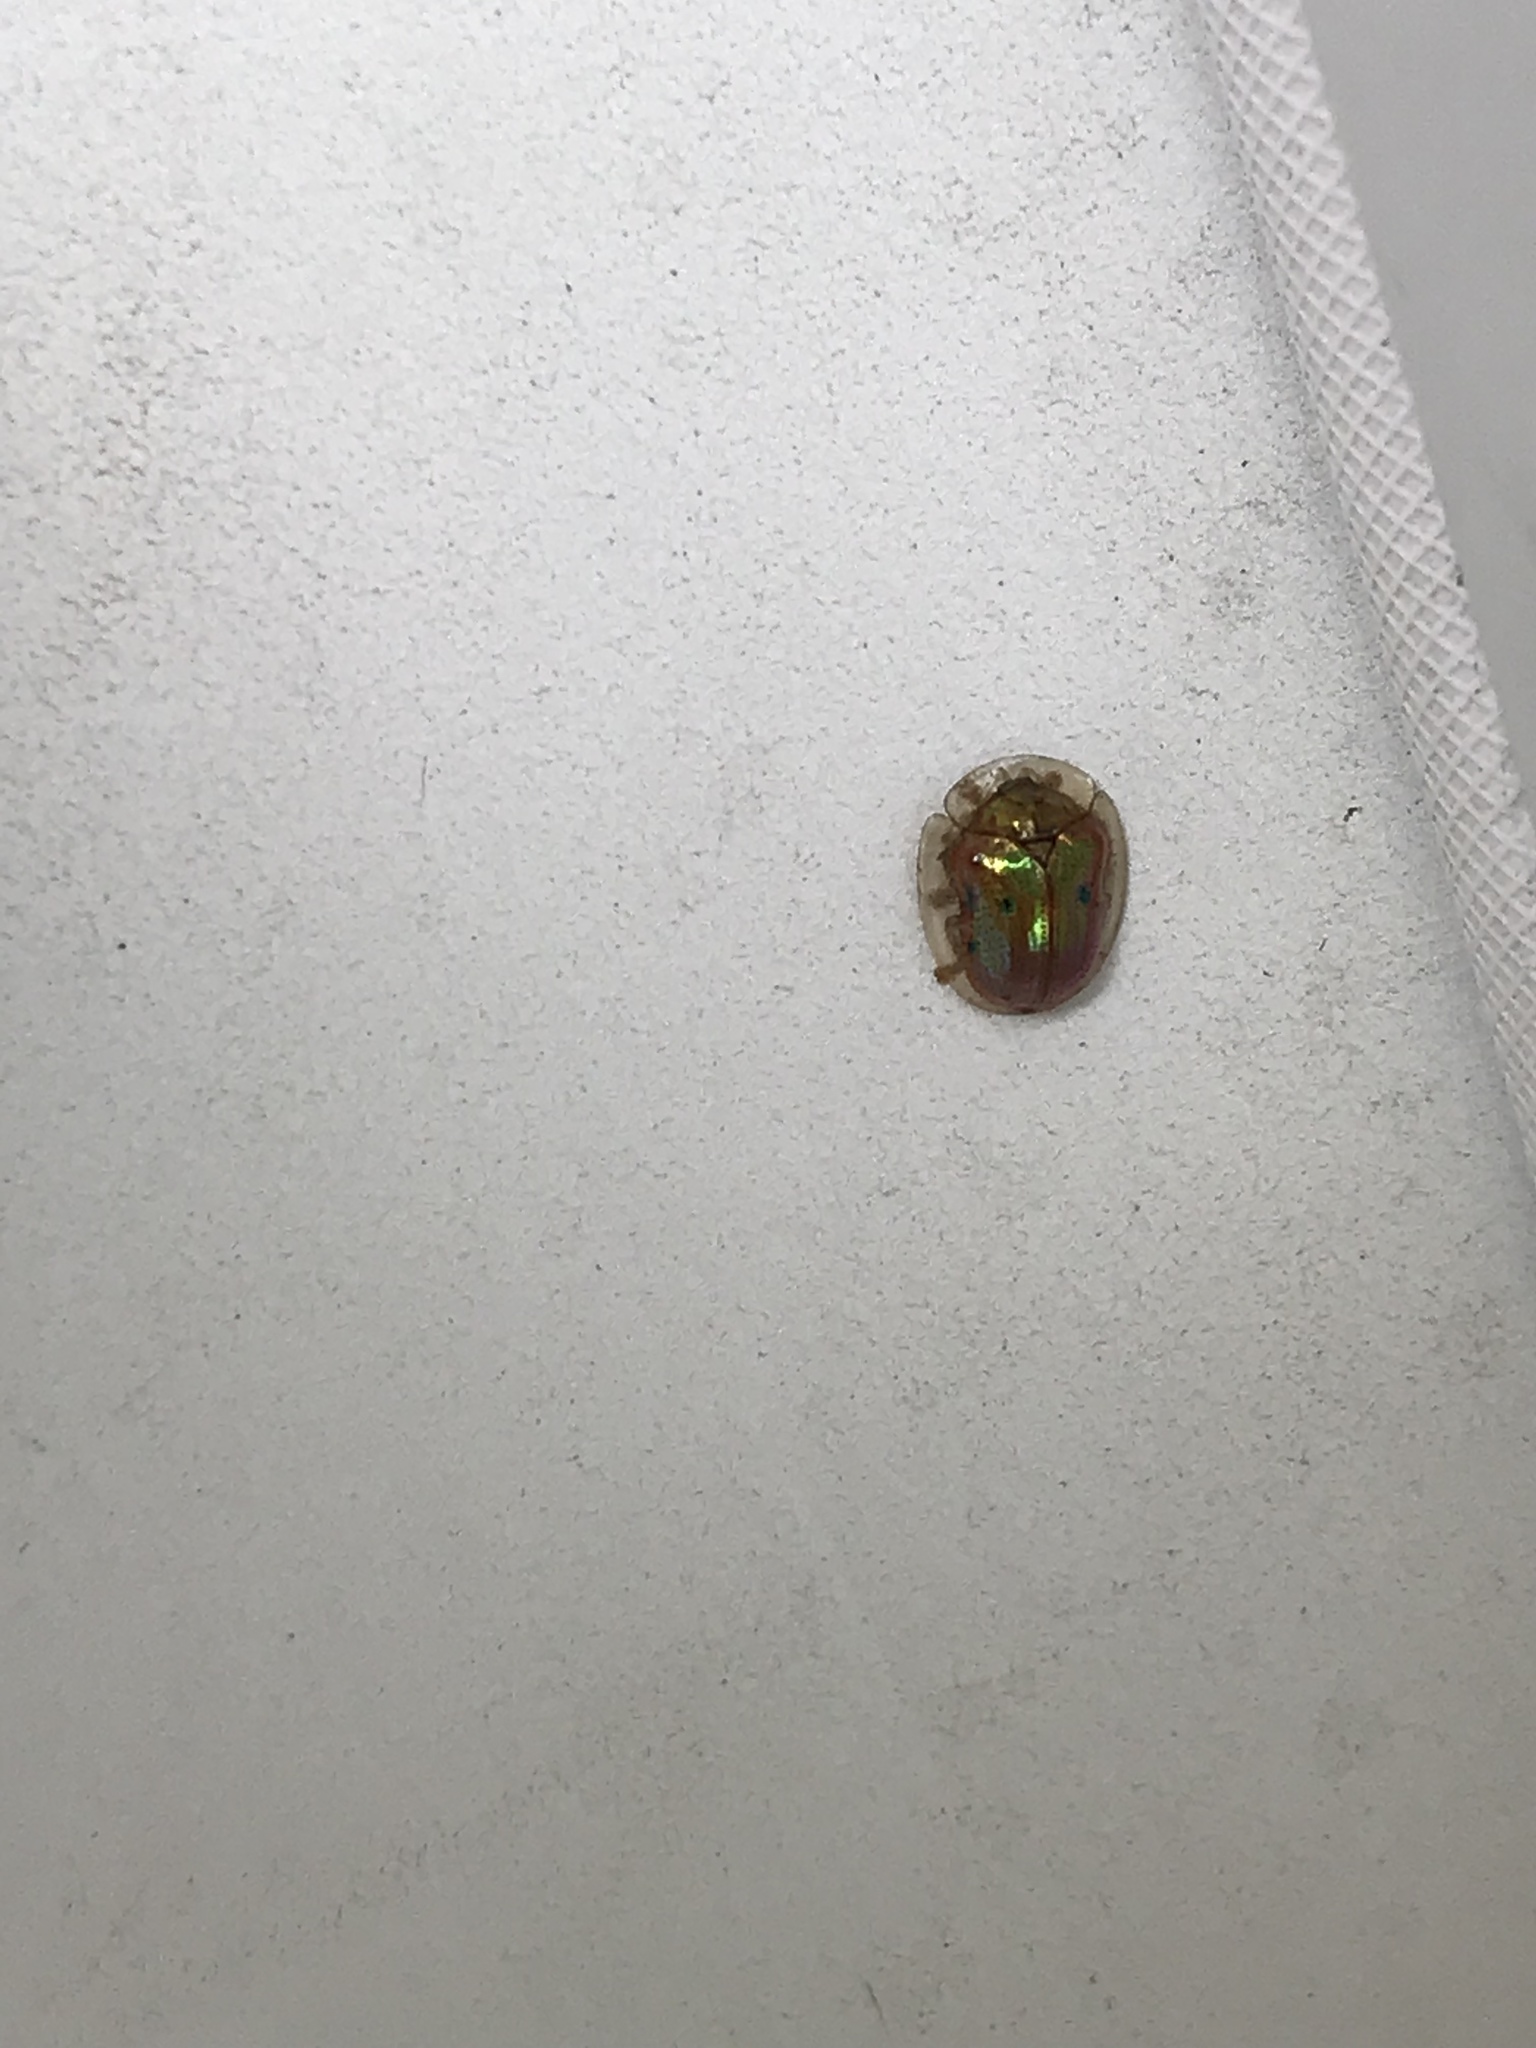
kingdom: Animalia
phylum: Arthropoda
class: Insecta
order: Coleoptera
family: Chrysomelidae
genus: Charidotella
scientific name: Charidotella sexpunctata
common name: Golden tortoise beetle
